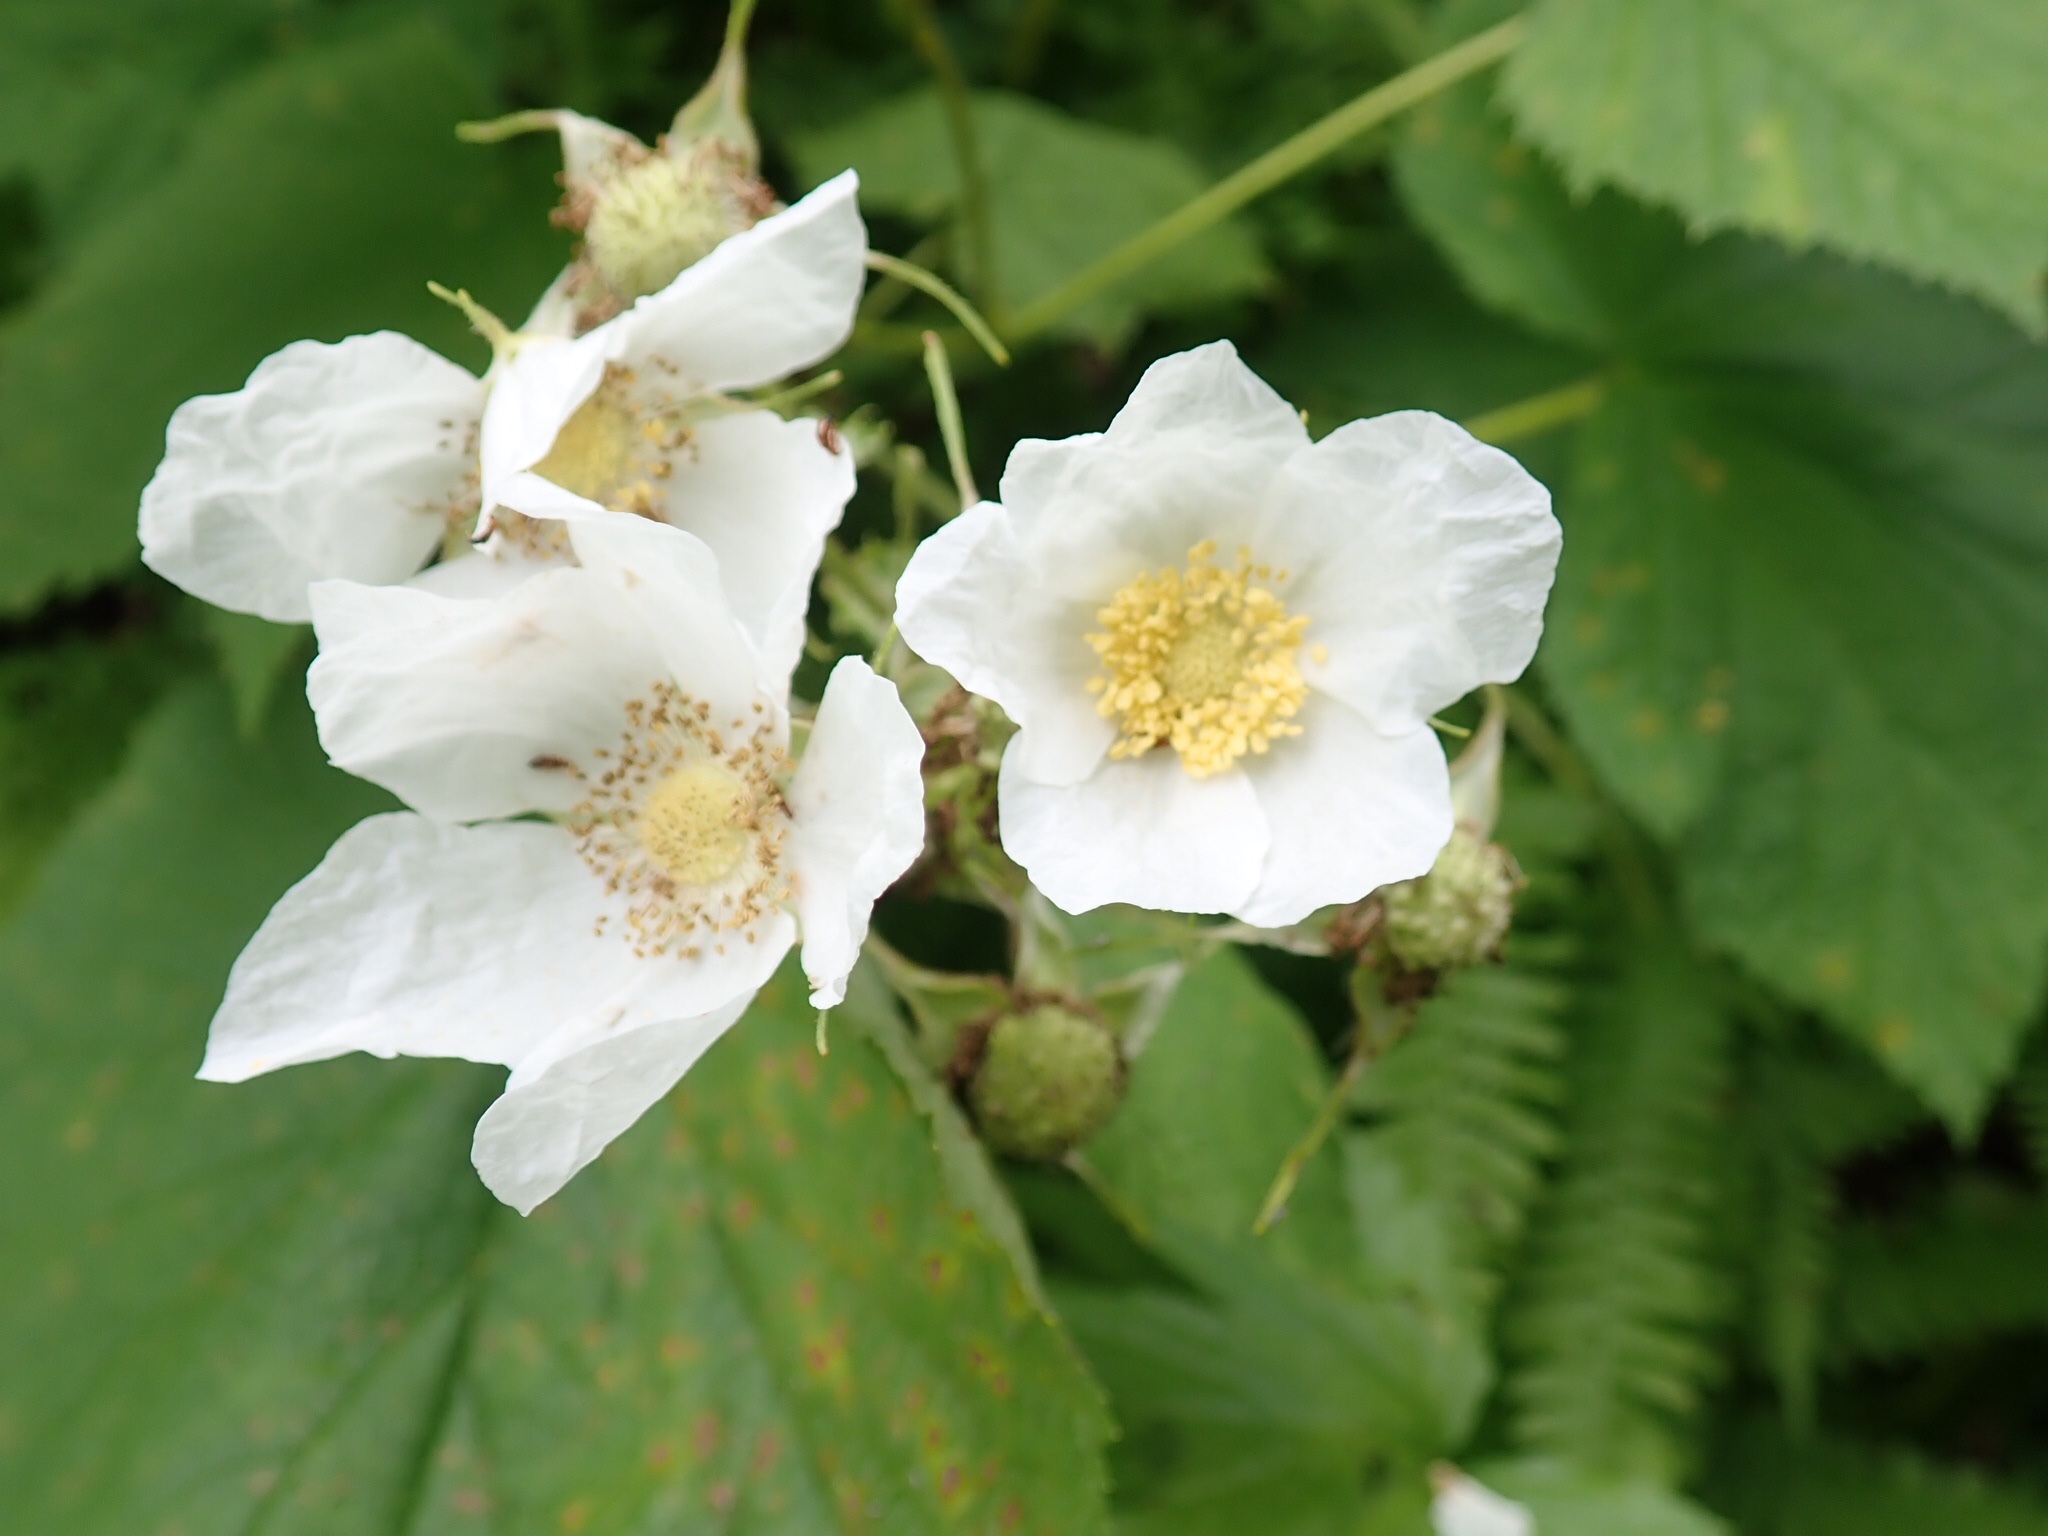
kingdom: Plantae
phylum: Tracheophyta
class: Magnoliopsida
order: Rosales
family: Rosaceae
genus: Rubus
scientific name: Rubus parviflorus
